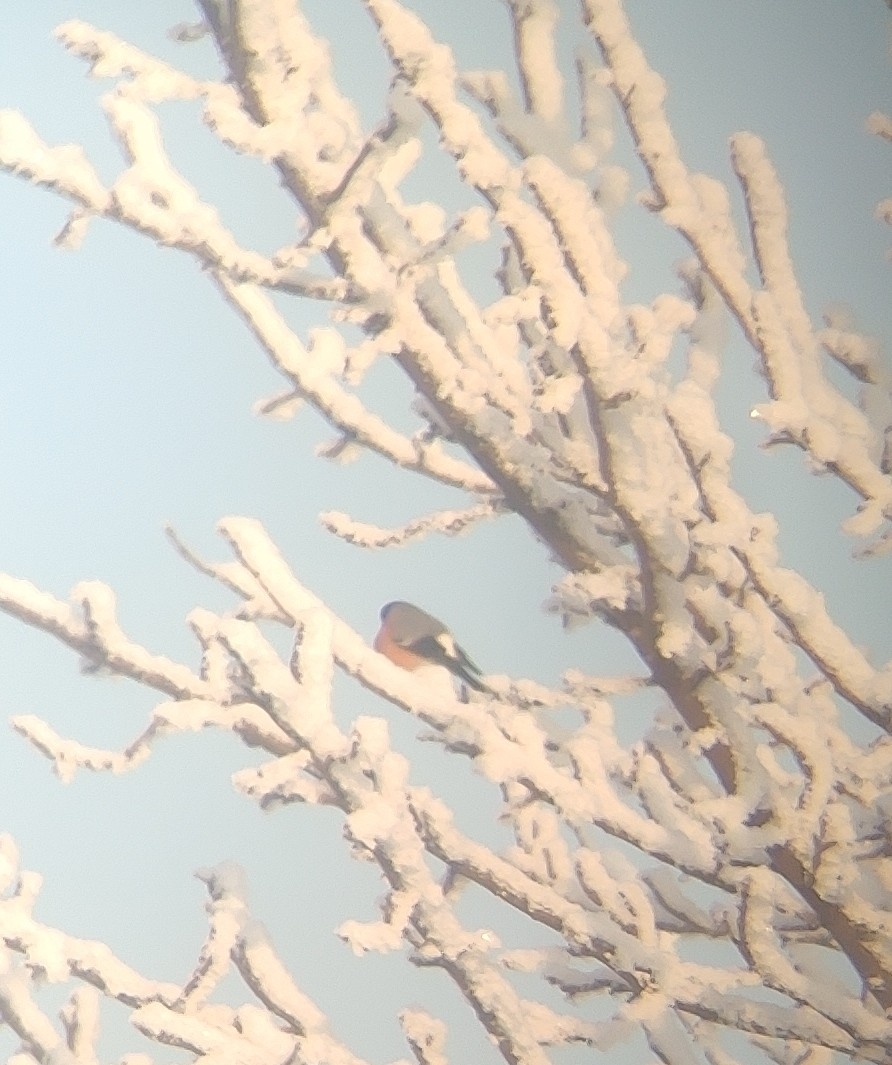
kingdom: Animalia
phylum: Chordata
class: Aves
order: Passeriformes
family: Fringillidae
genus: Pyrrhula
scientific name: Pyrrhula pyrrhula
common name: Eurasian bullfinch
